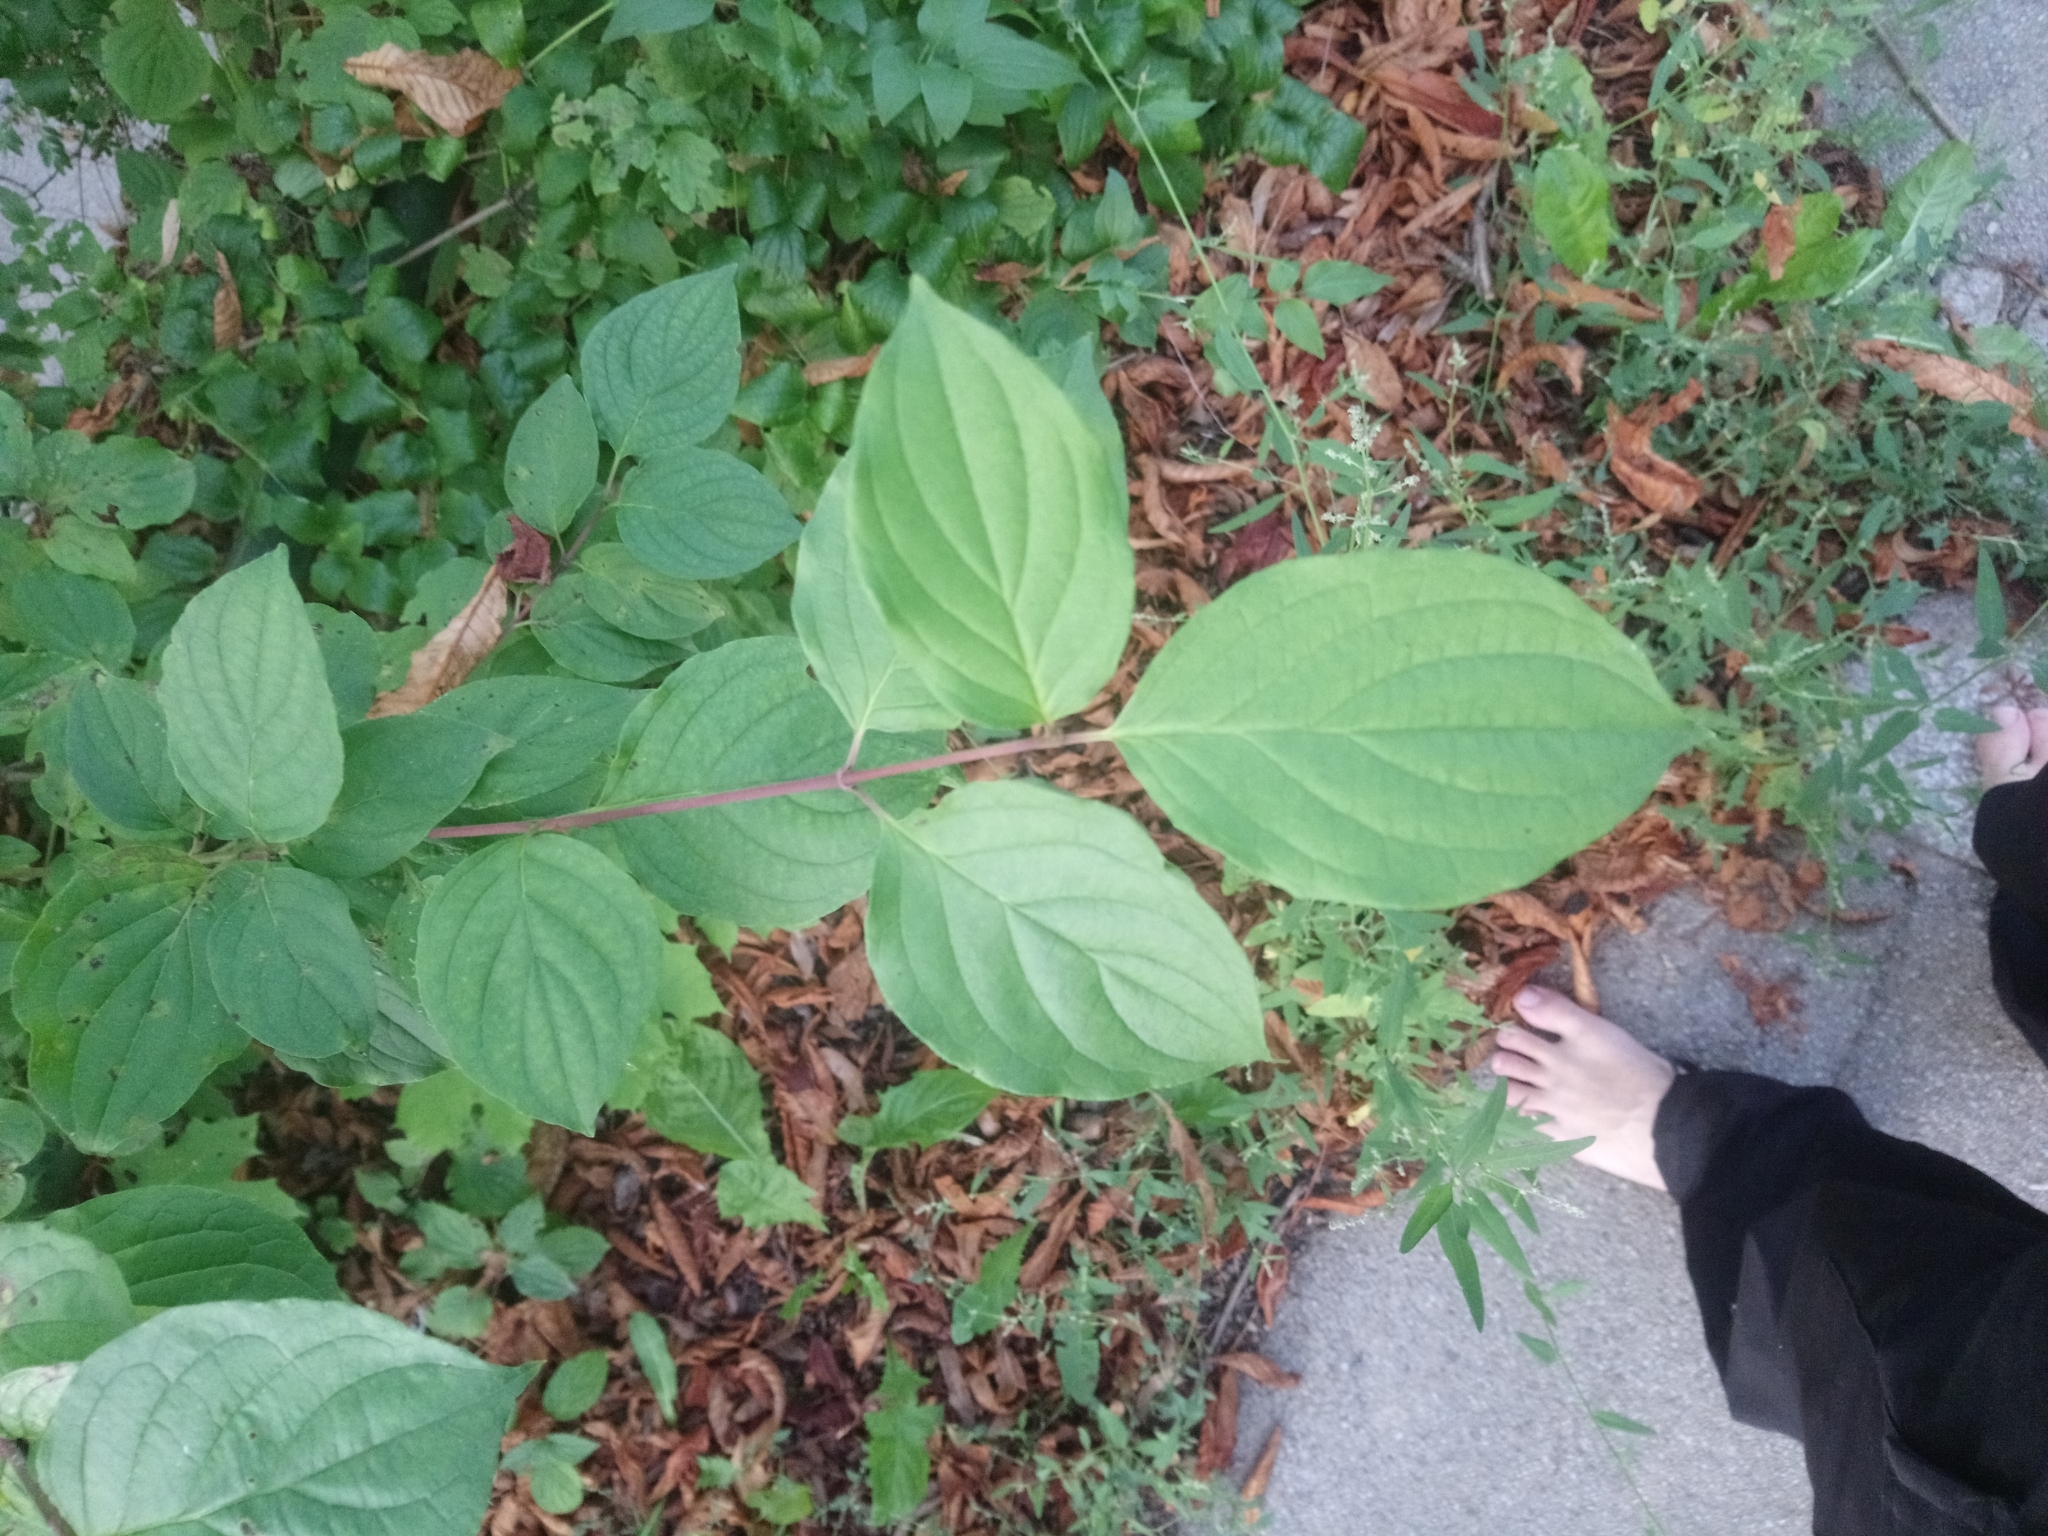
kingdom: Plantae
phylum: Tracheophyta
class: Magnoliopsida
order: Cornales
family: Cornaceae
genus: Cornus
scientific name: Cornus sanguinea
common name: Dogwood
